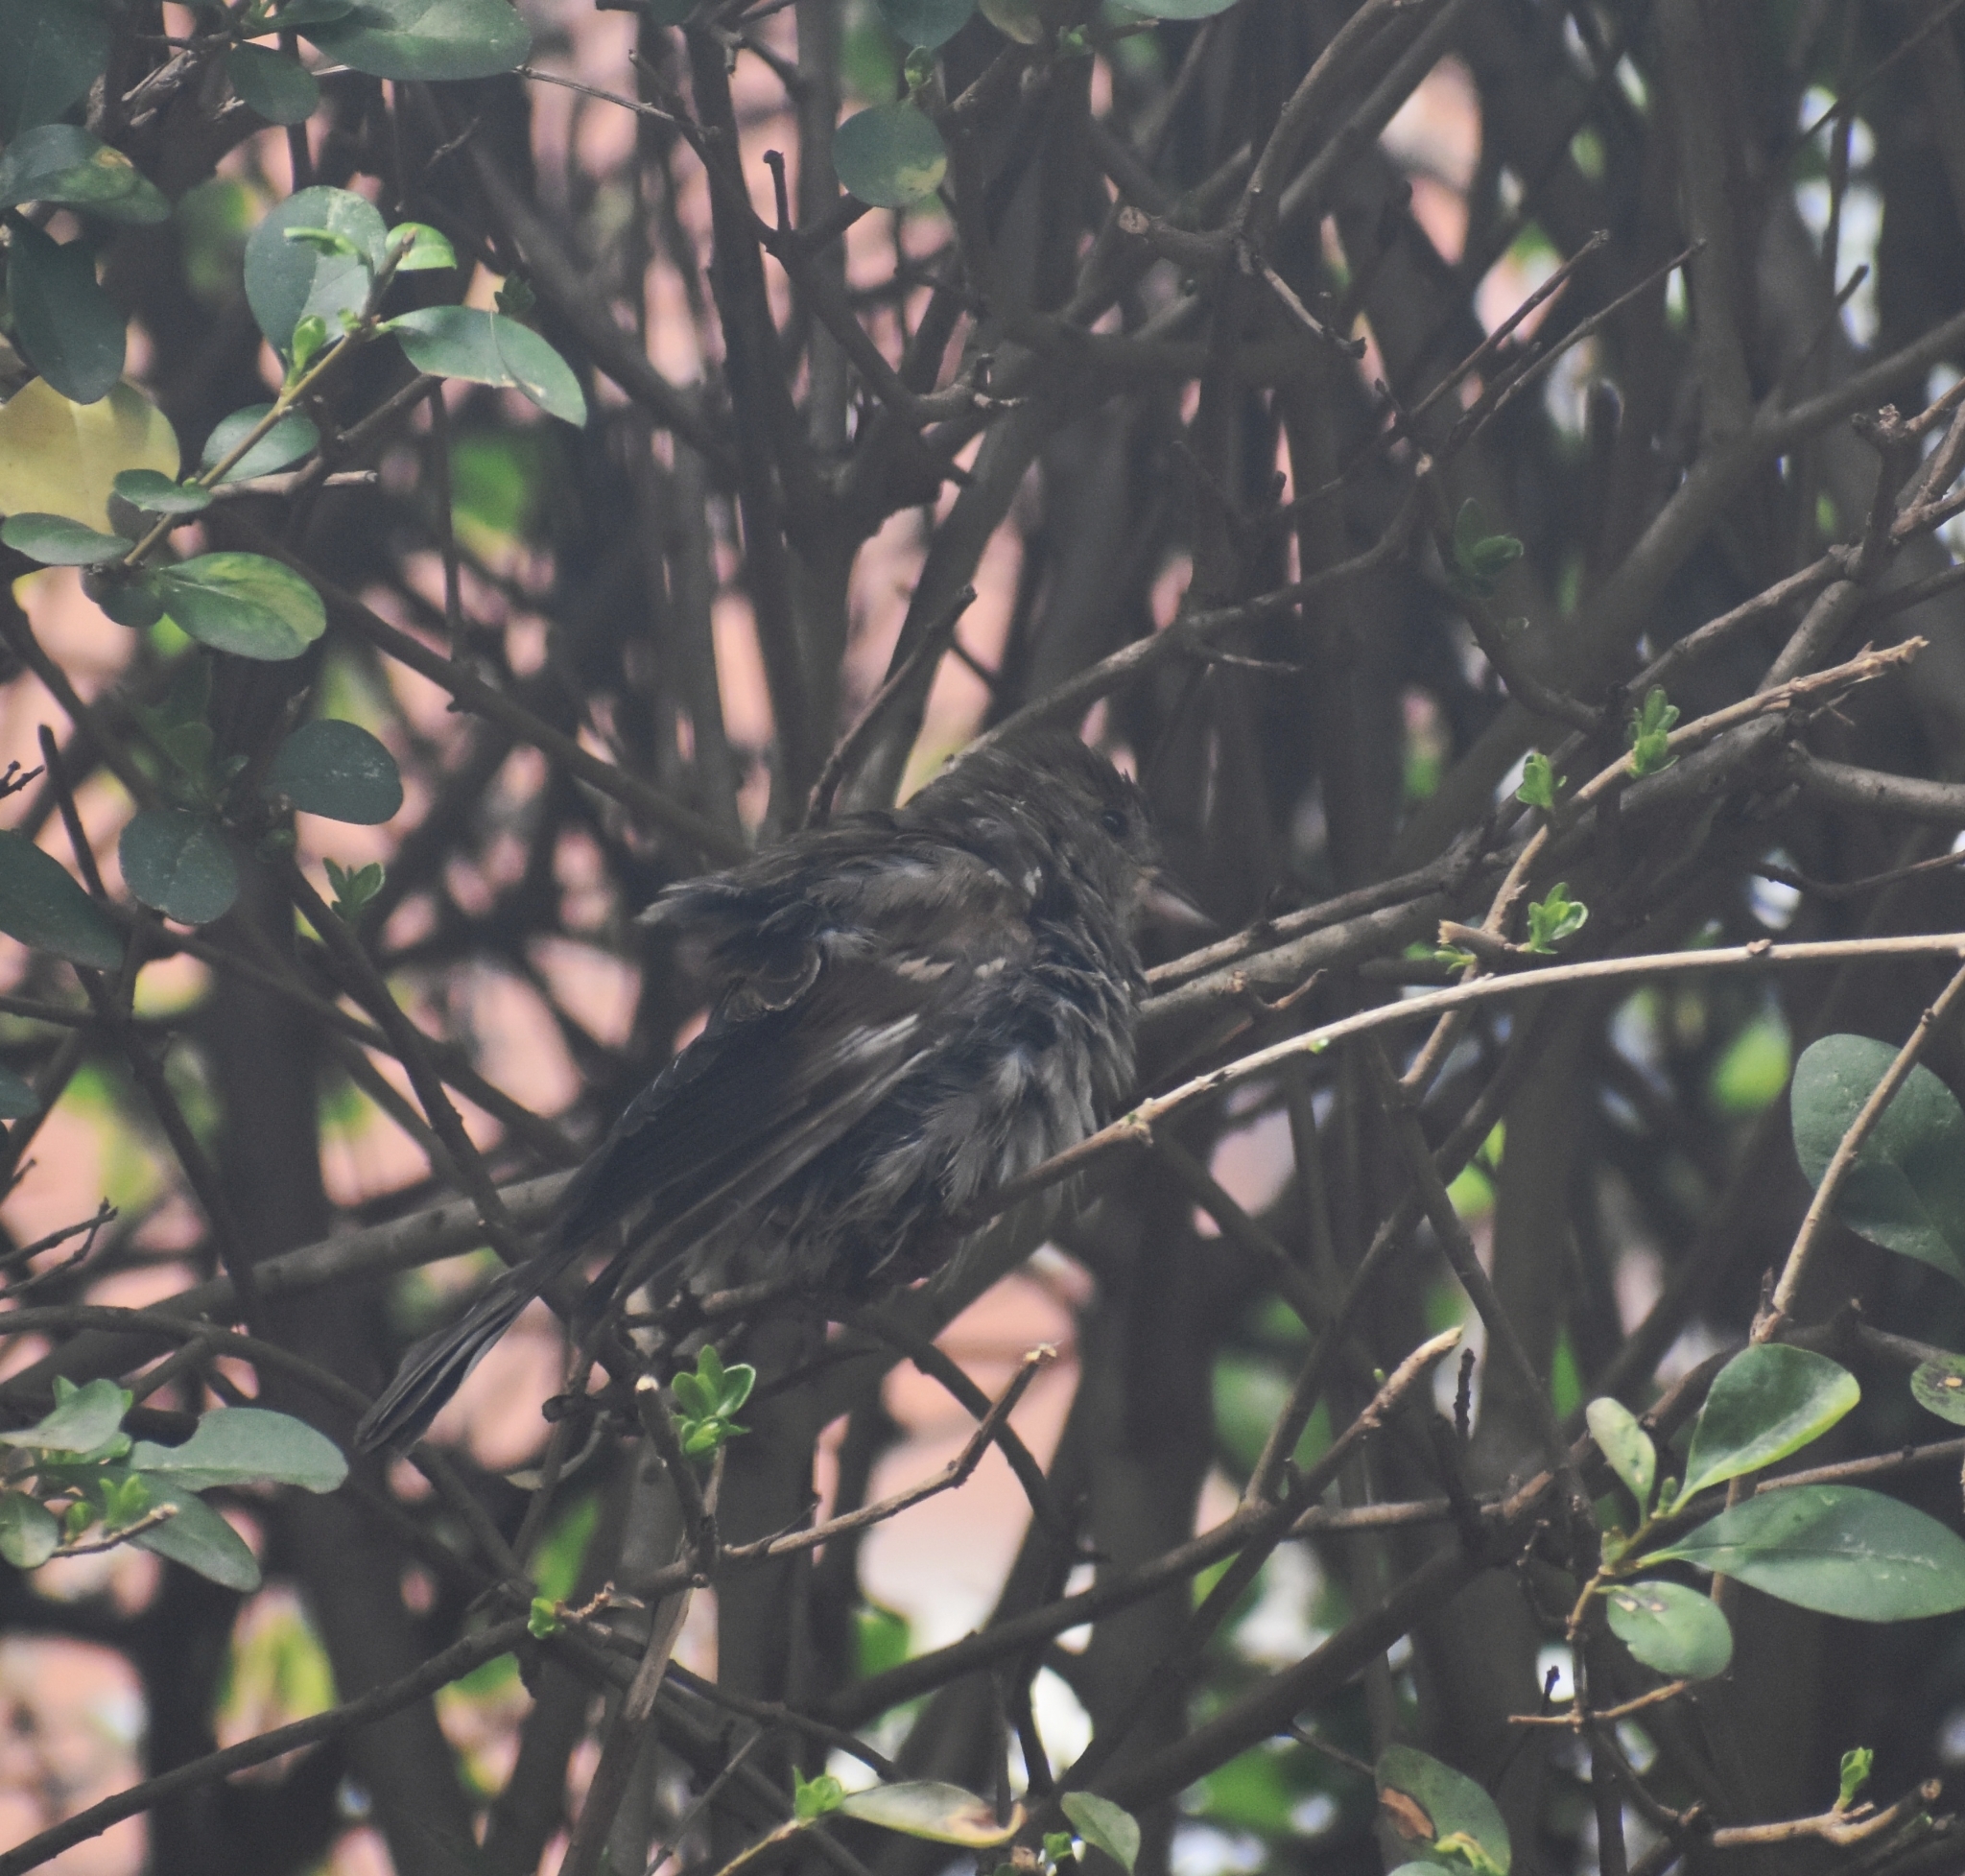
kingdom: Animalia
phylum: Chordata
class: Aves
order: Passeriformes
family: Passeridae
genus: Passer
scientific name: Passer domesticus
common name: House sparrow
